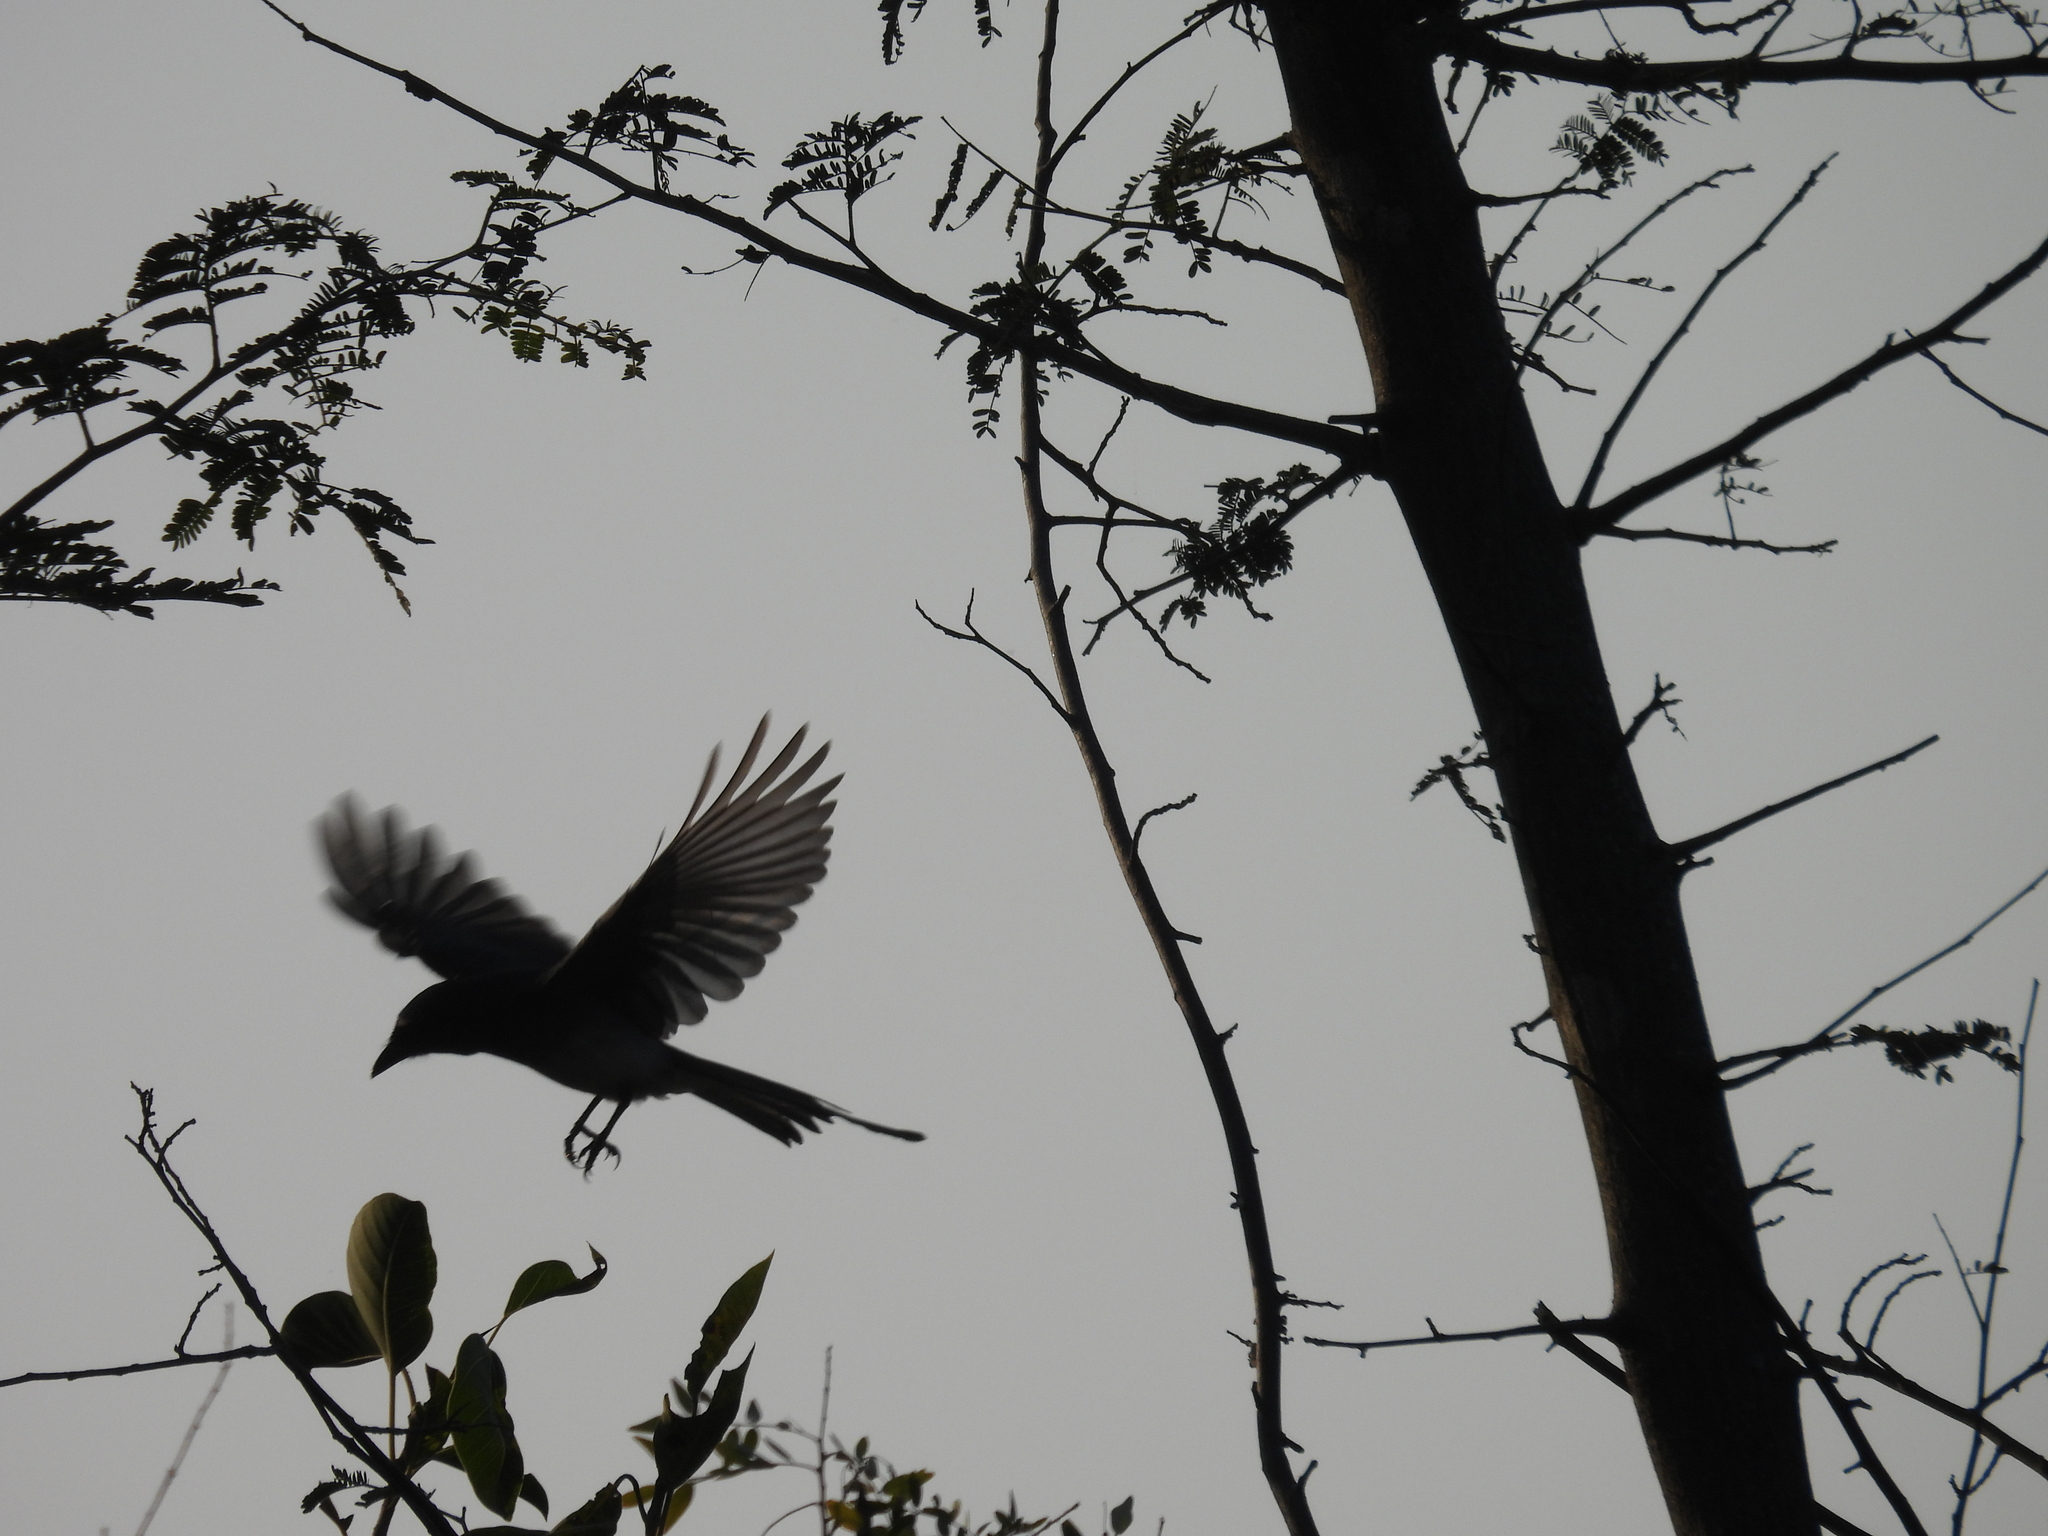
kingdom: Animalia
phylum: Chordata
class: Aves
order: Passeriformes
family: Dicruridae
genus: Dicrurus
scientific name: Dicrurus caerulescens
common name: White-bellied drongo
